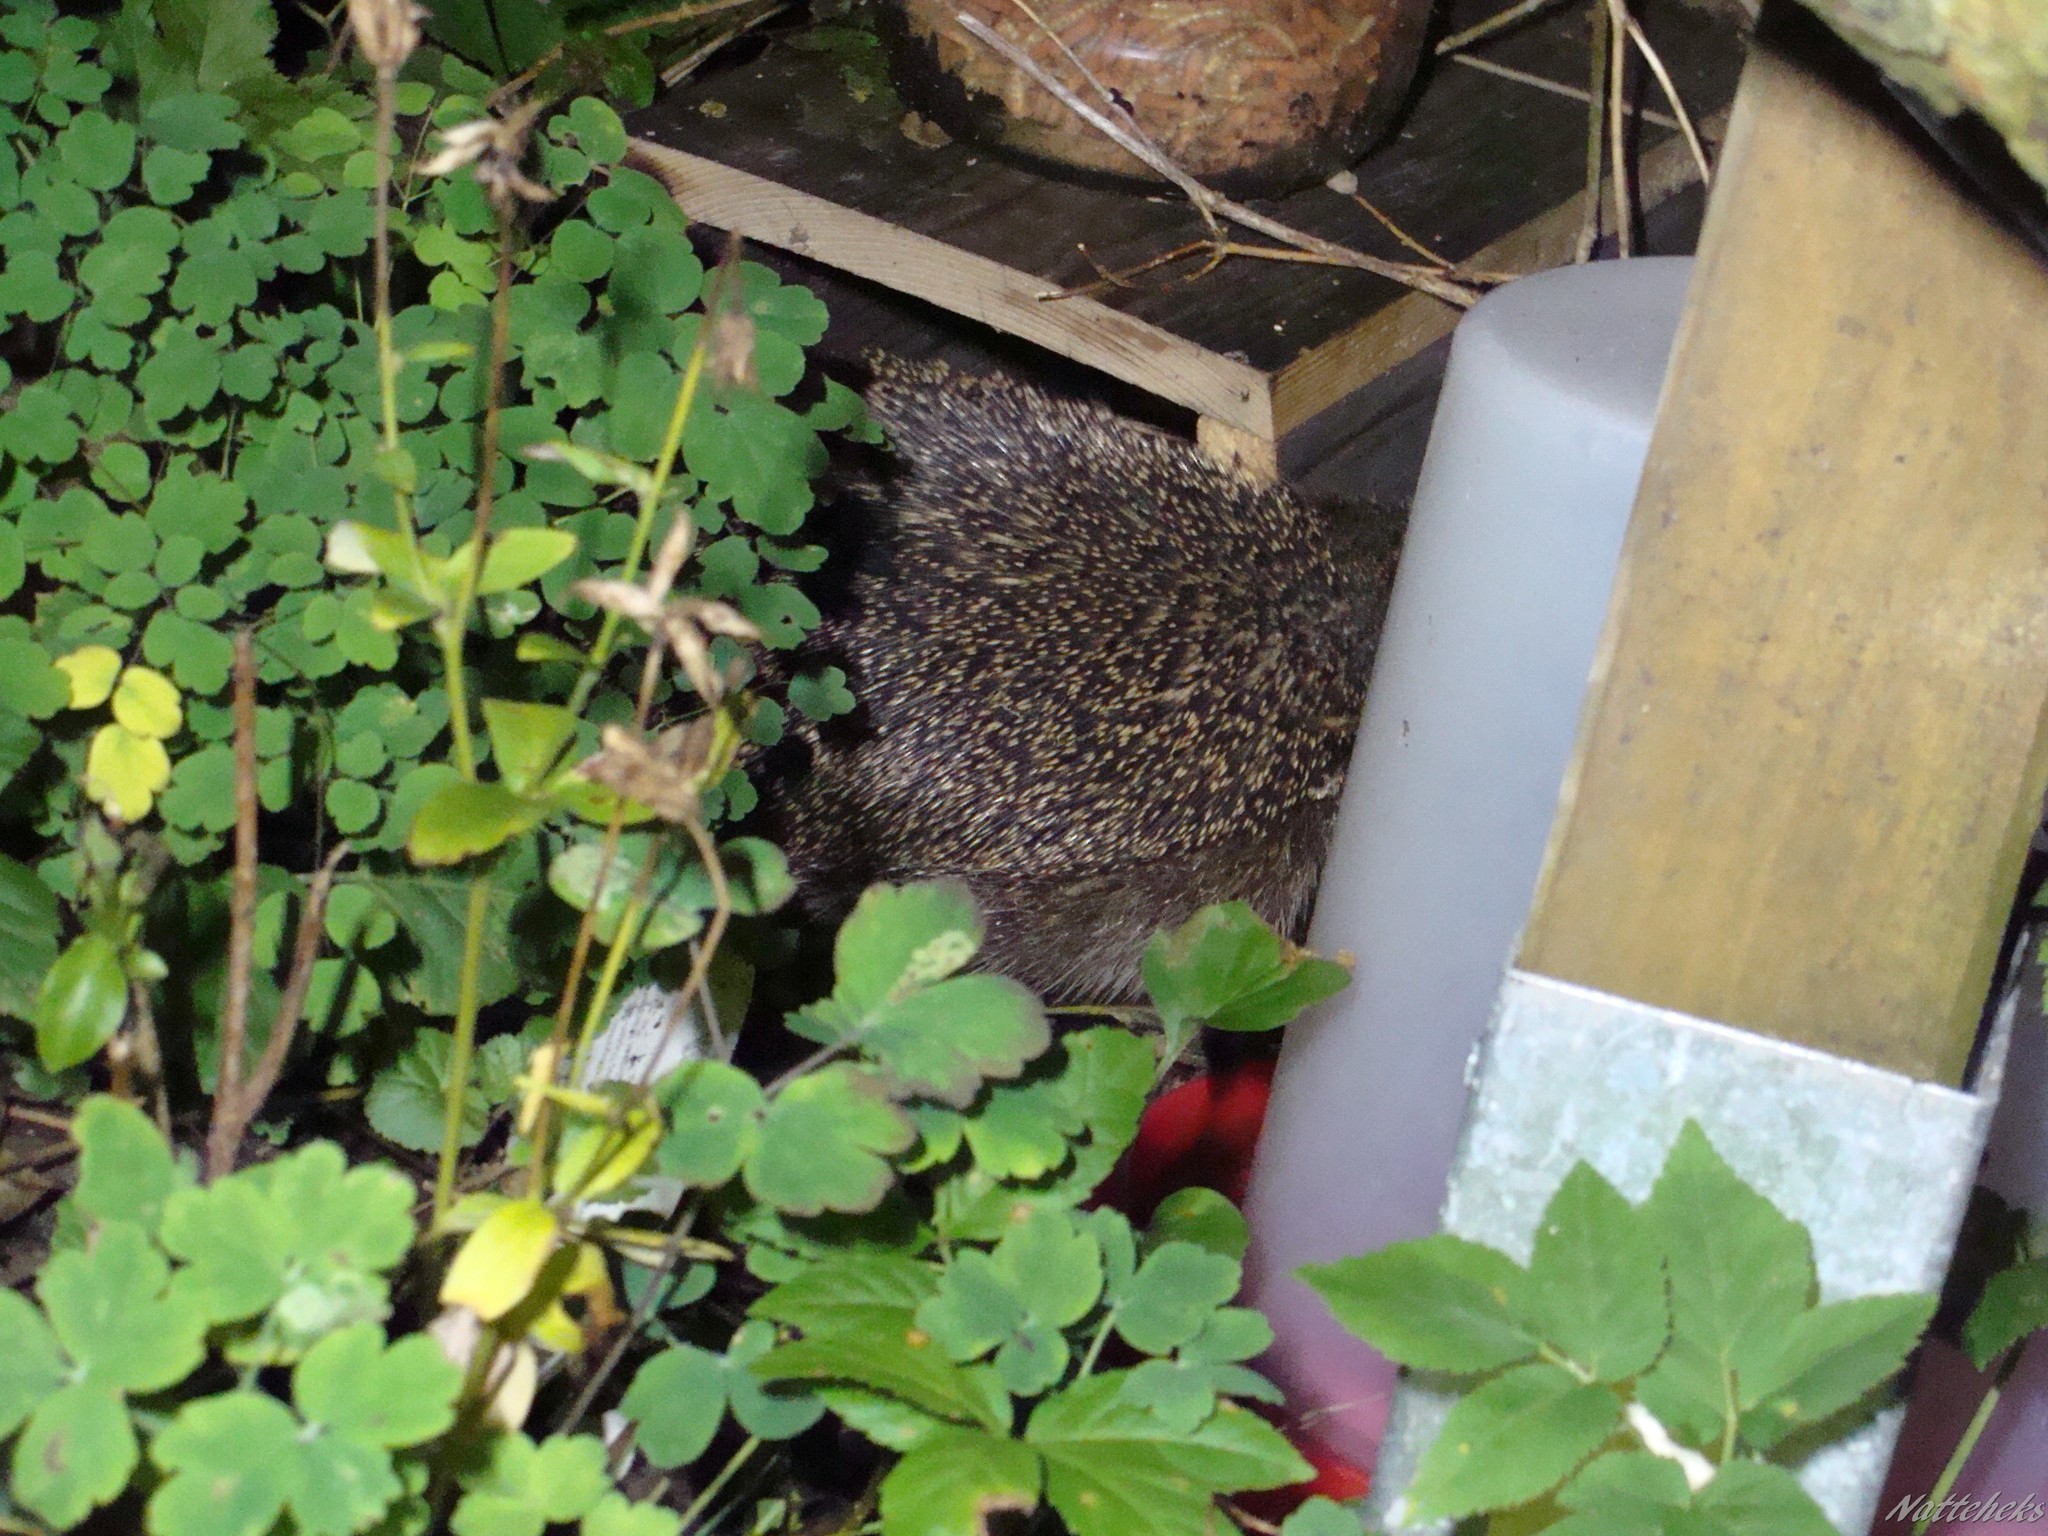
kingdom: Animalia
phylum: Chordata
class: Mammalia
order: Erinaceomorpha
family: Erinaceidae
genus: Erinaceus
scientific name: Erinaceus europaeus
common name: West european hedgehog
